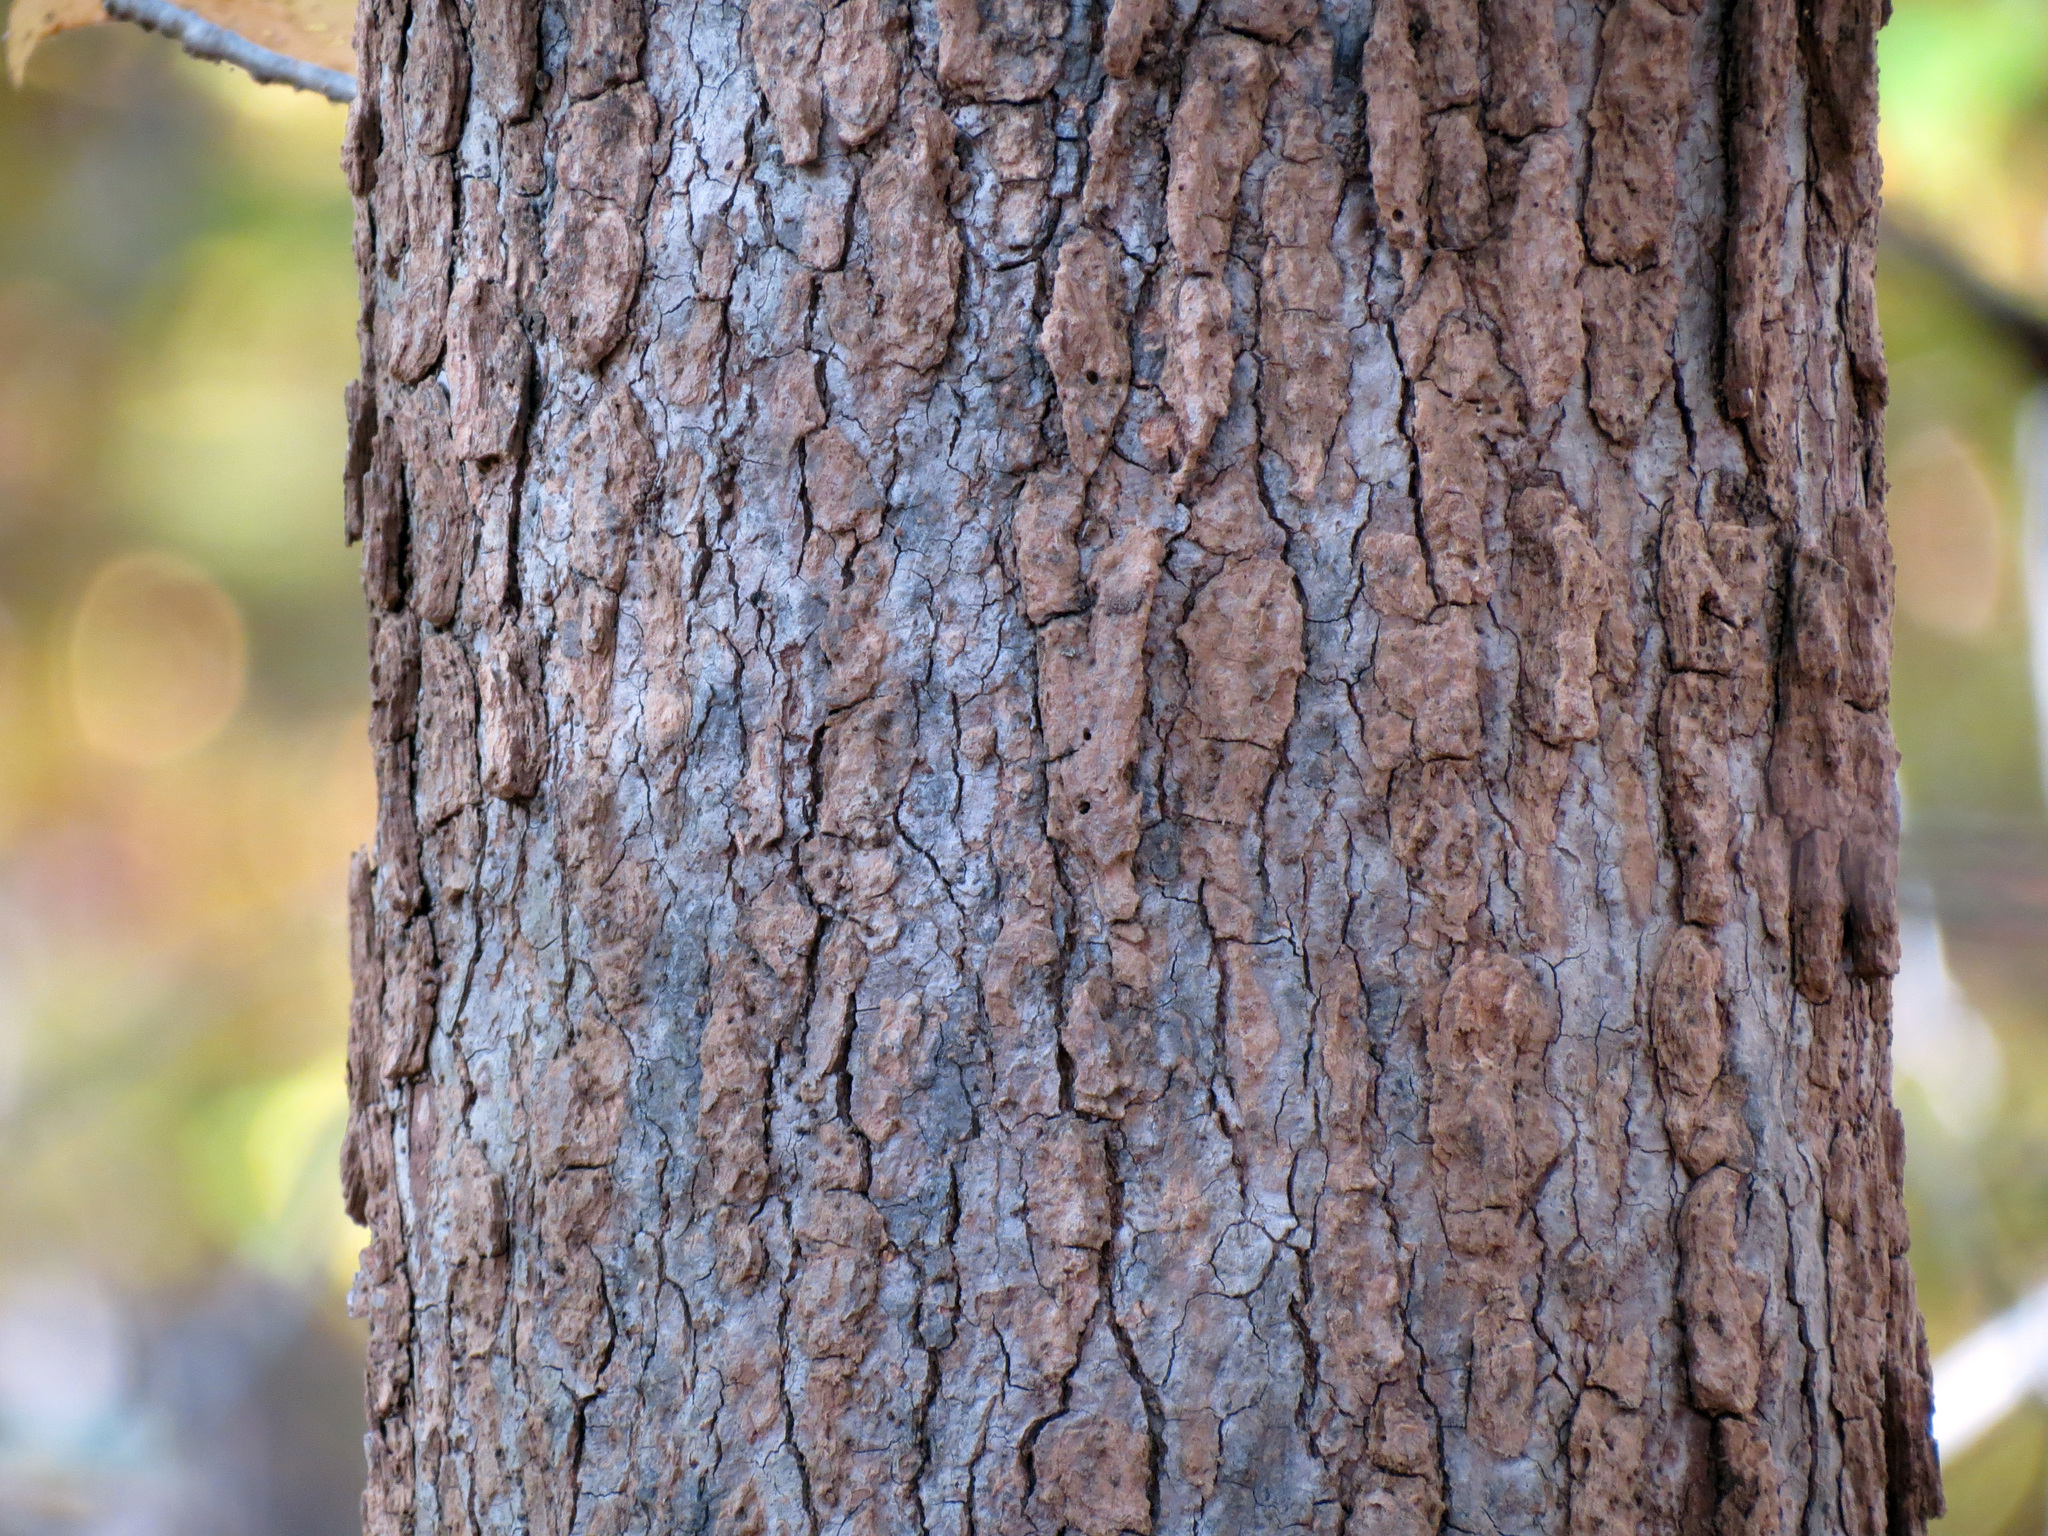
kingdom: Plantae
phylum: Tracheophyta
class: Magnoliopsida
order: Saxifragales
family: Altingiaceae
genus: Liquidambar
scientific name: Liquidambar styraciflua
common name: Sweet gum
